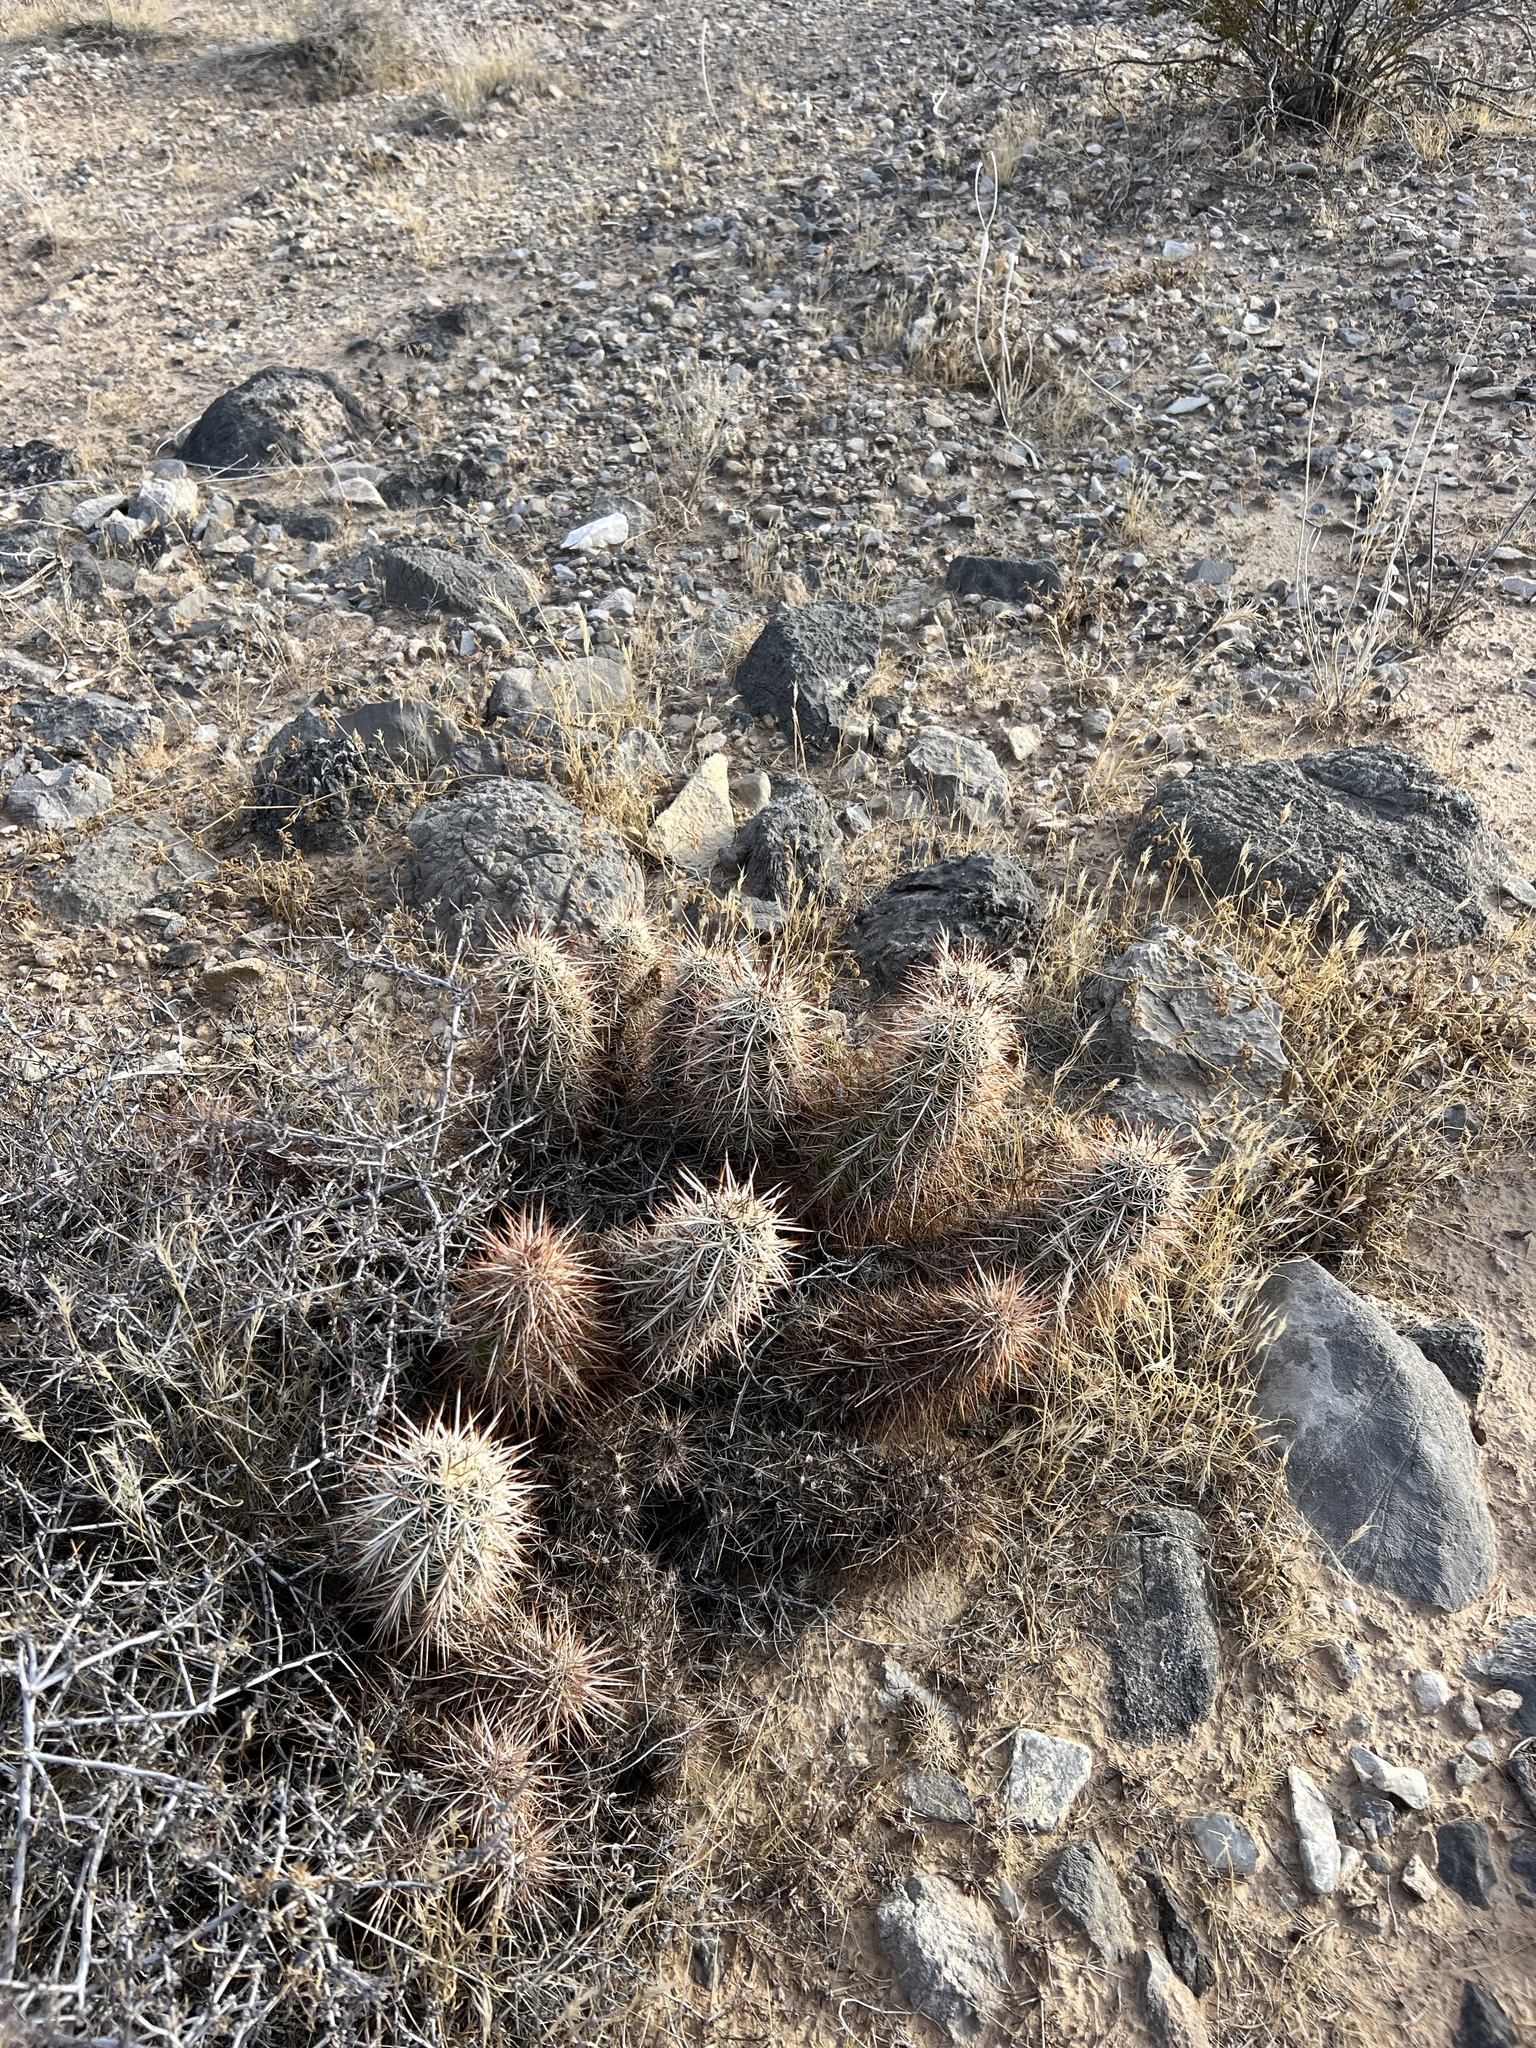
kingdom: Plantae
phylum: Tracheophyta
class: Magnoliopsida
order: Caryophyllales
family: Cactaceae
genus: Echinocereus
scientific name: Echinocereus engelmannii
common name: Engelmann's hedgehog cactus
